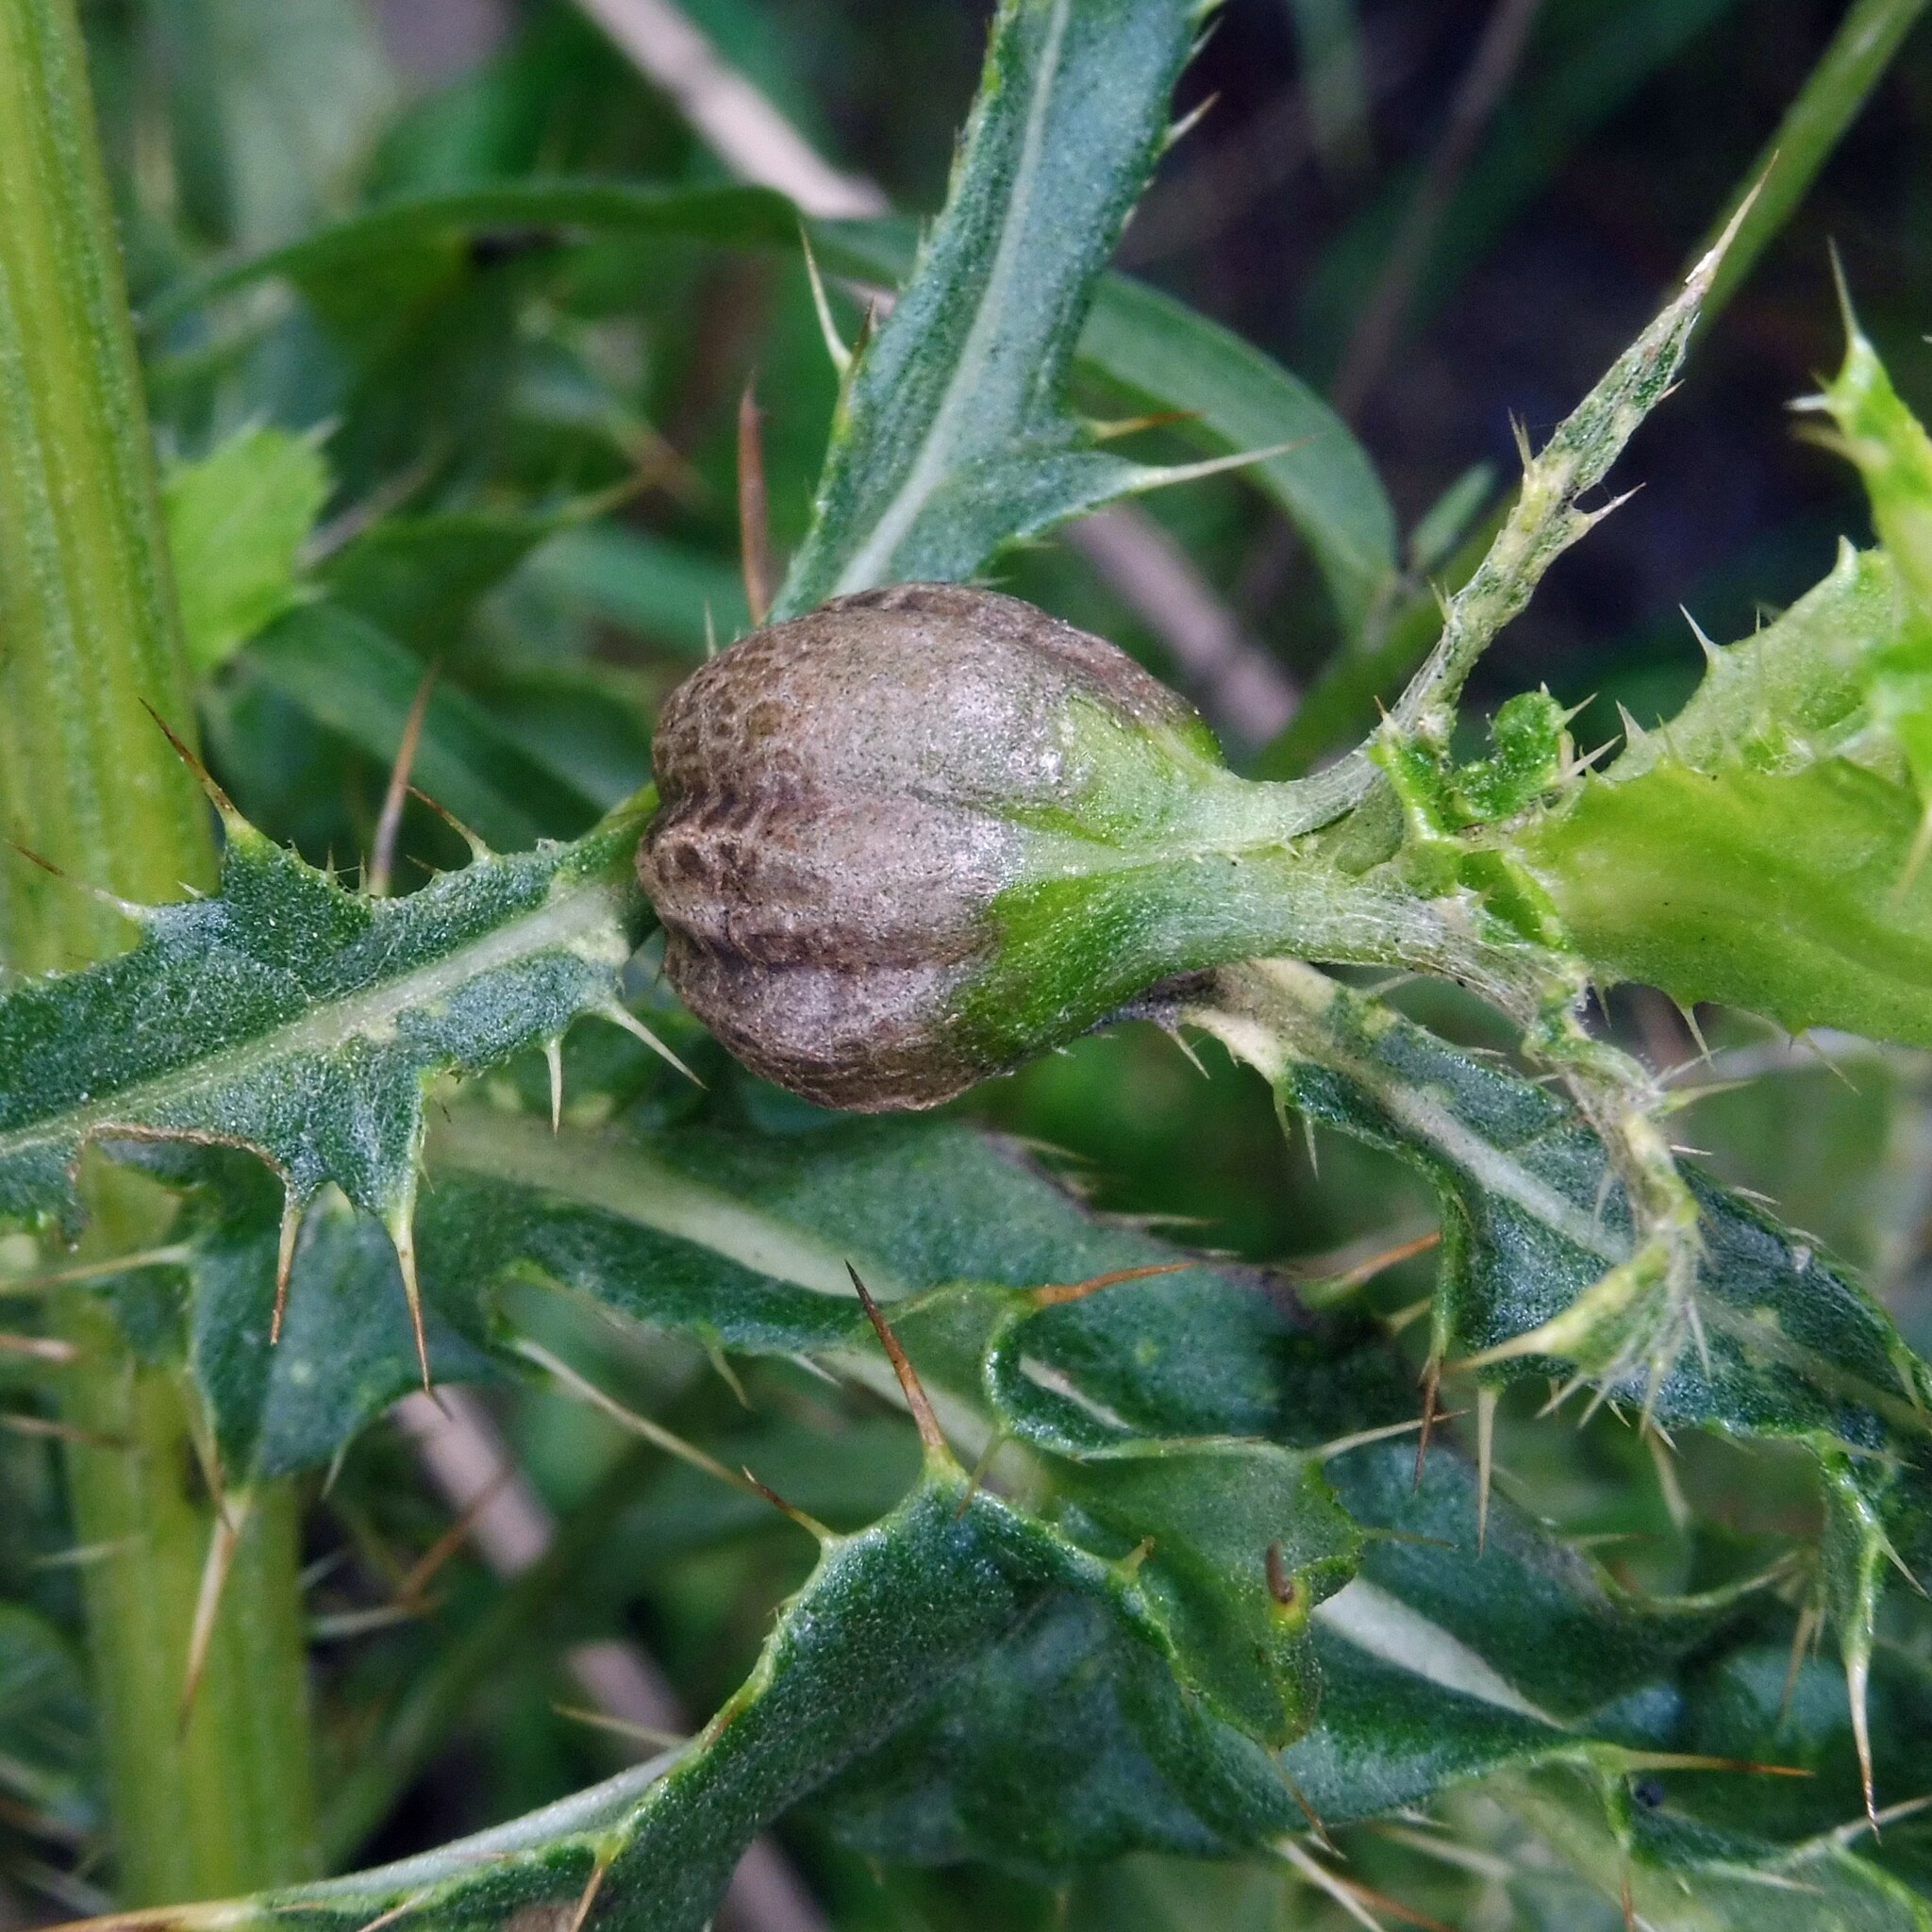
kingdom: Animalia
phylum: Arthropoda
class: Insecta
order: Diptera
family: Tephritidae
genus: Urophora
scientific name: Urophora cardui
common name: Fruit fly
